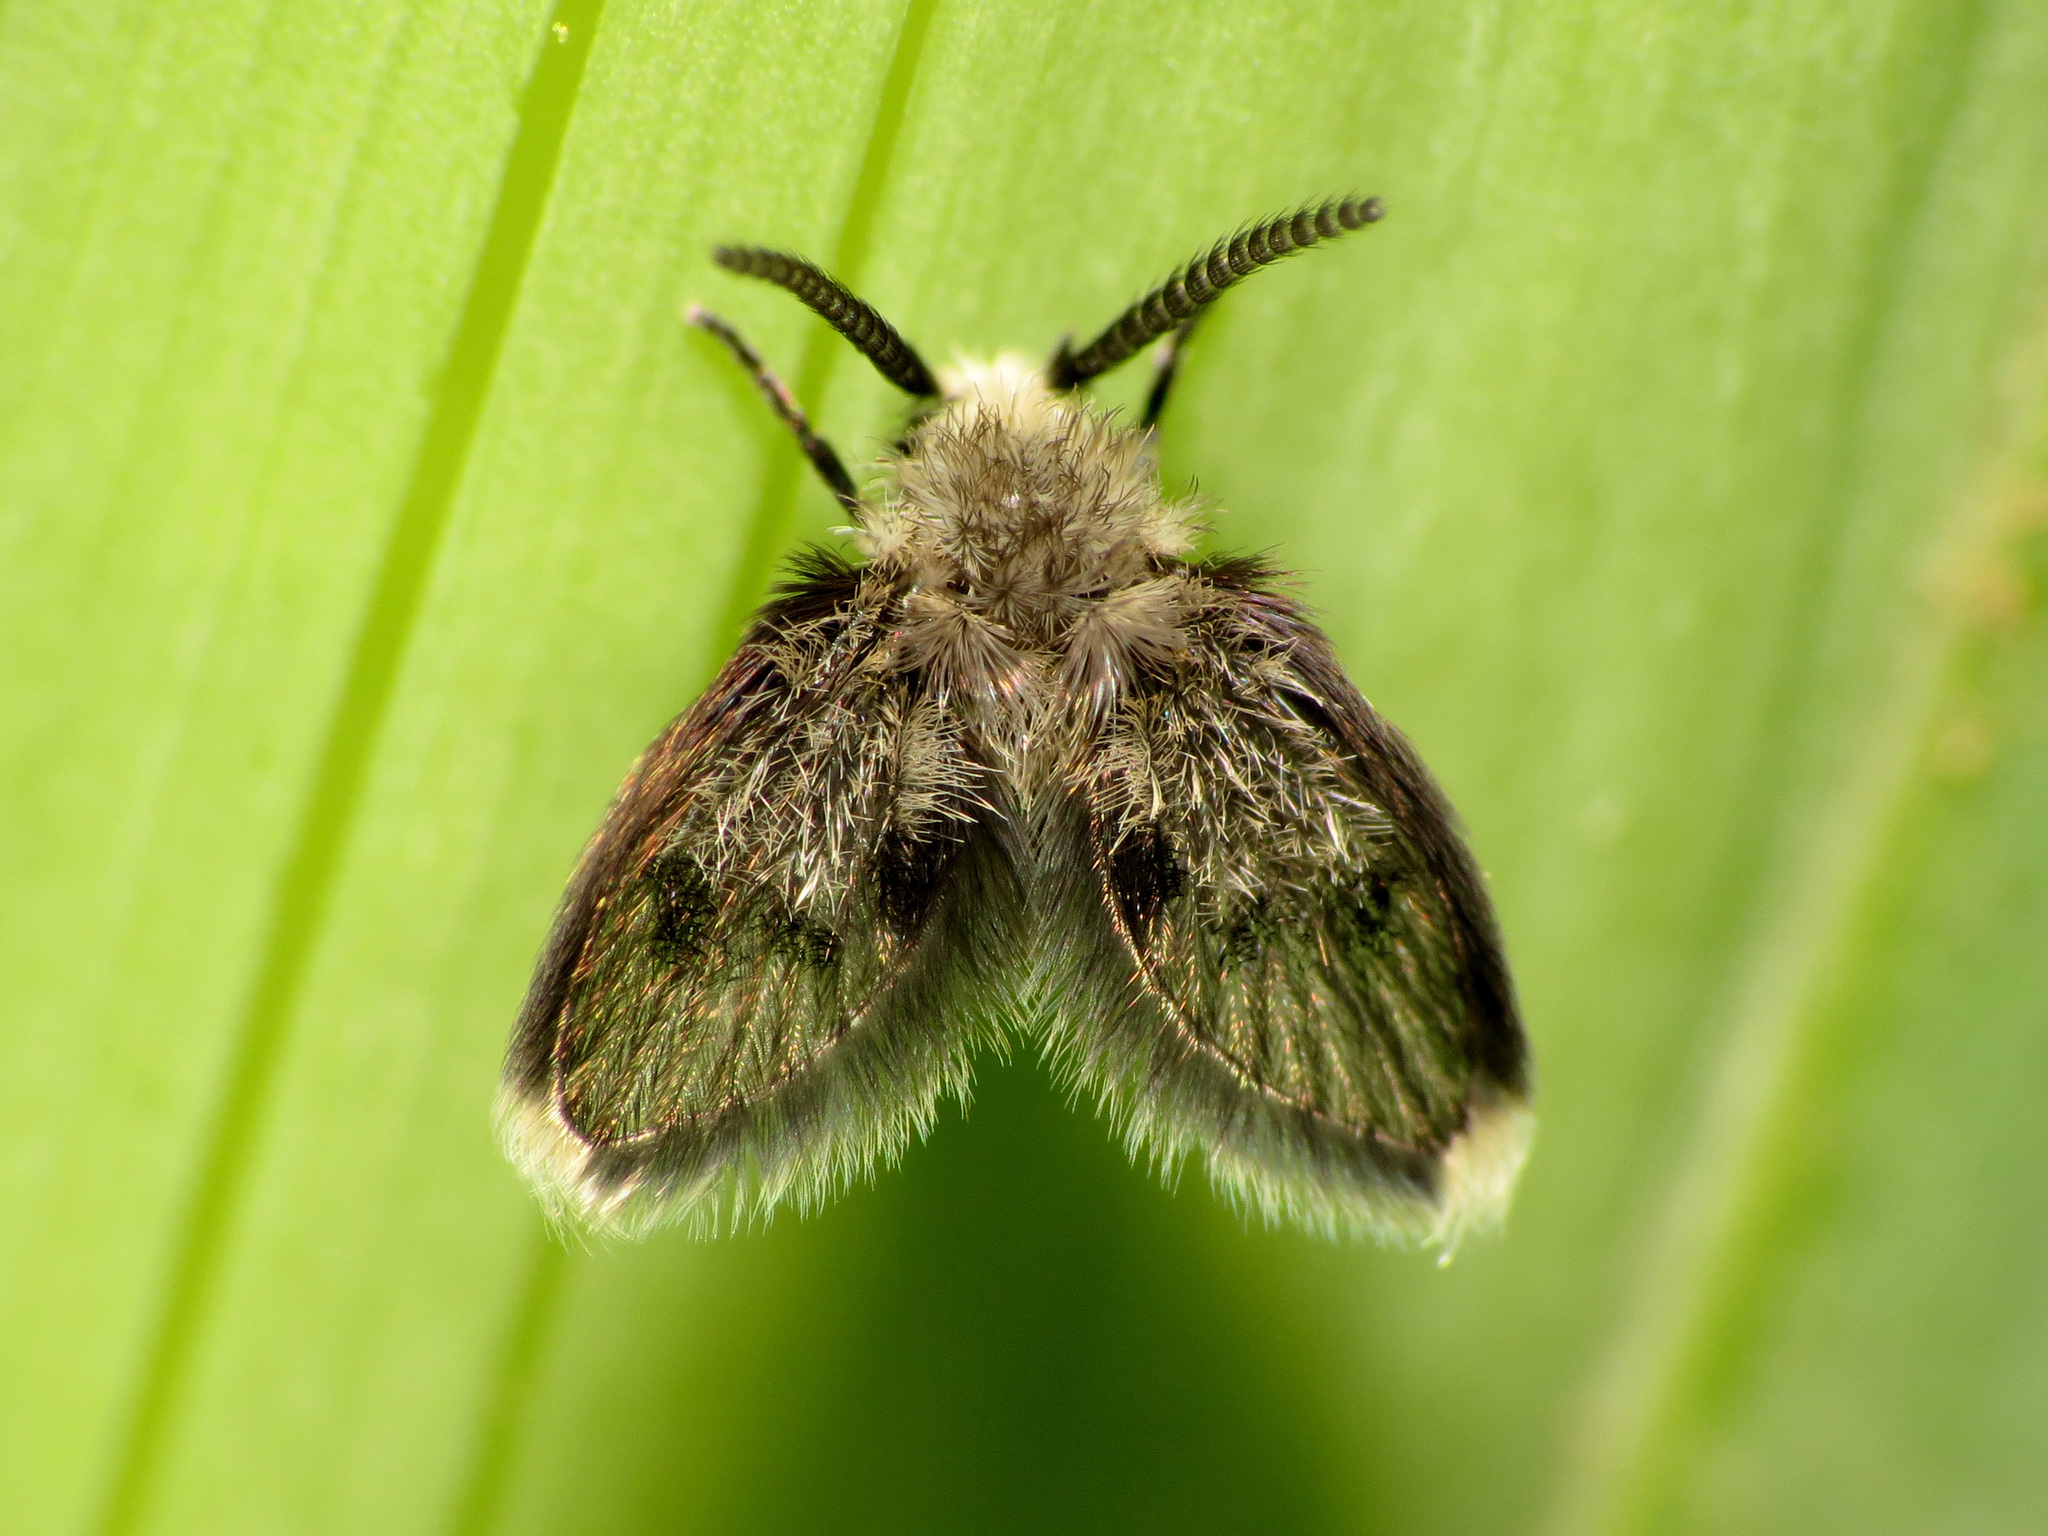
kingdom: Animalia
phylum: Arthropoda
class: Insecta
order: Diptera
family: Psychodidae
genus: Lepiseodina
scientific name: Lepiseodina
